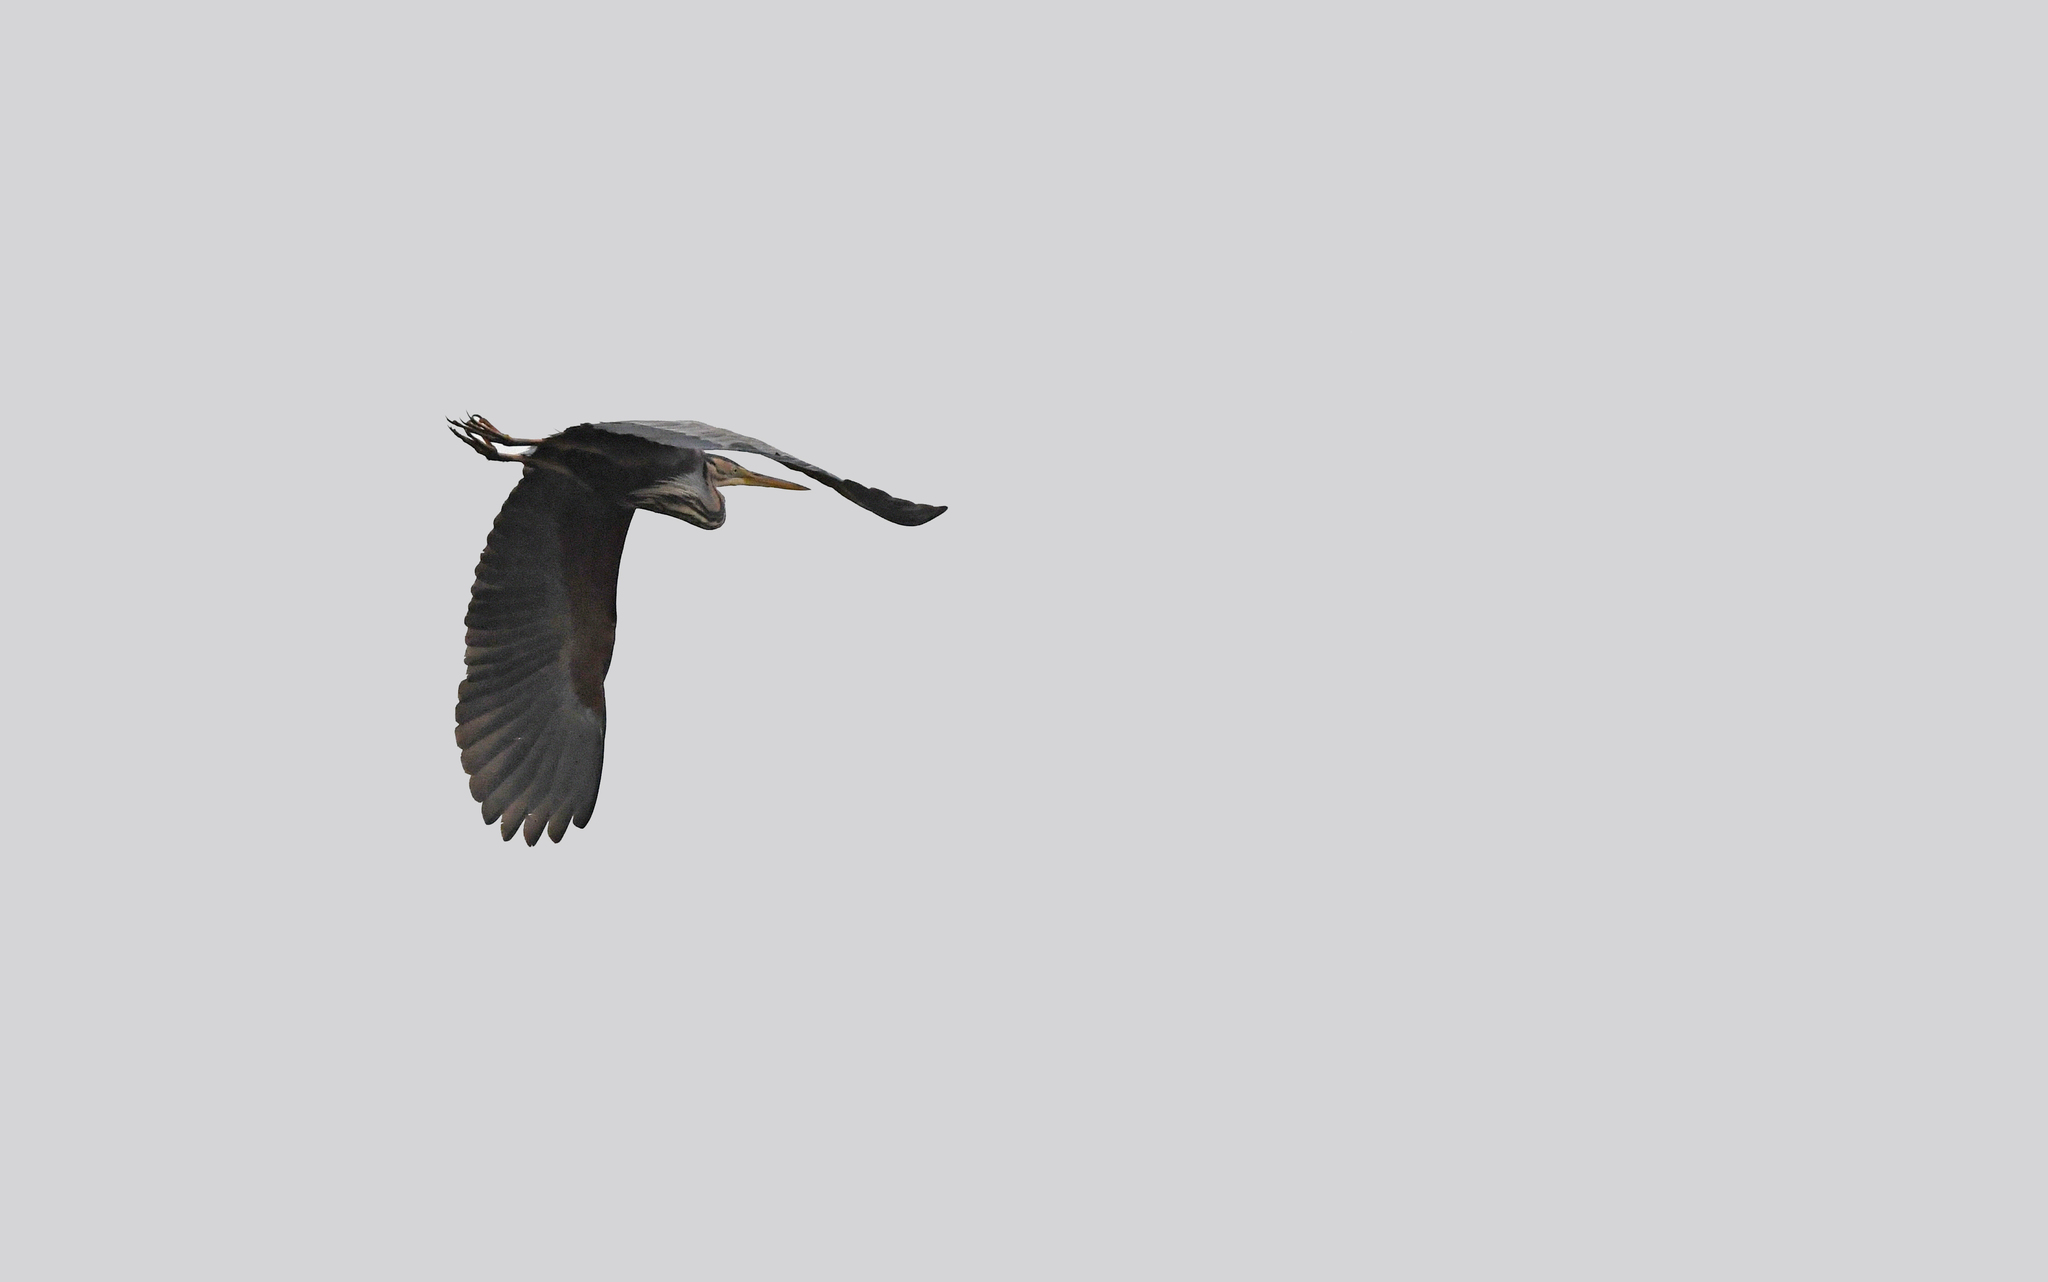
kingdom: Animalia
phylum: Chordata
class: Aves
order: Pelecaniformes
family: Ardeidae
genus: Ardea
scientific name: Ardea purpurea
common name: Purple heron
